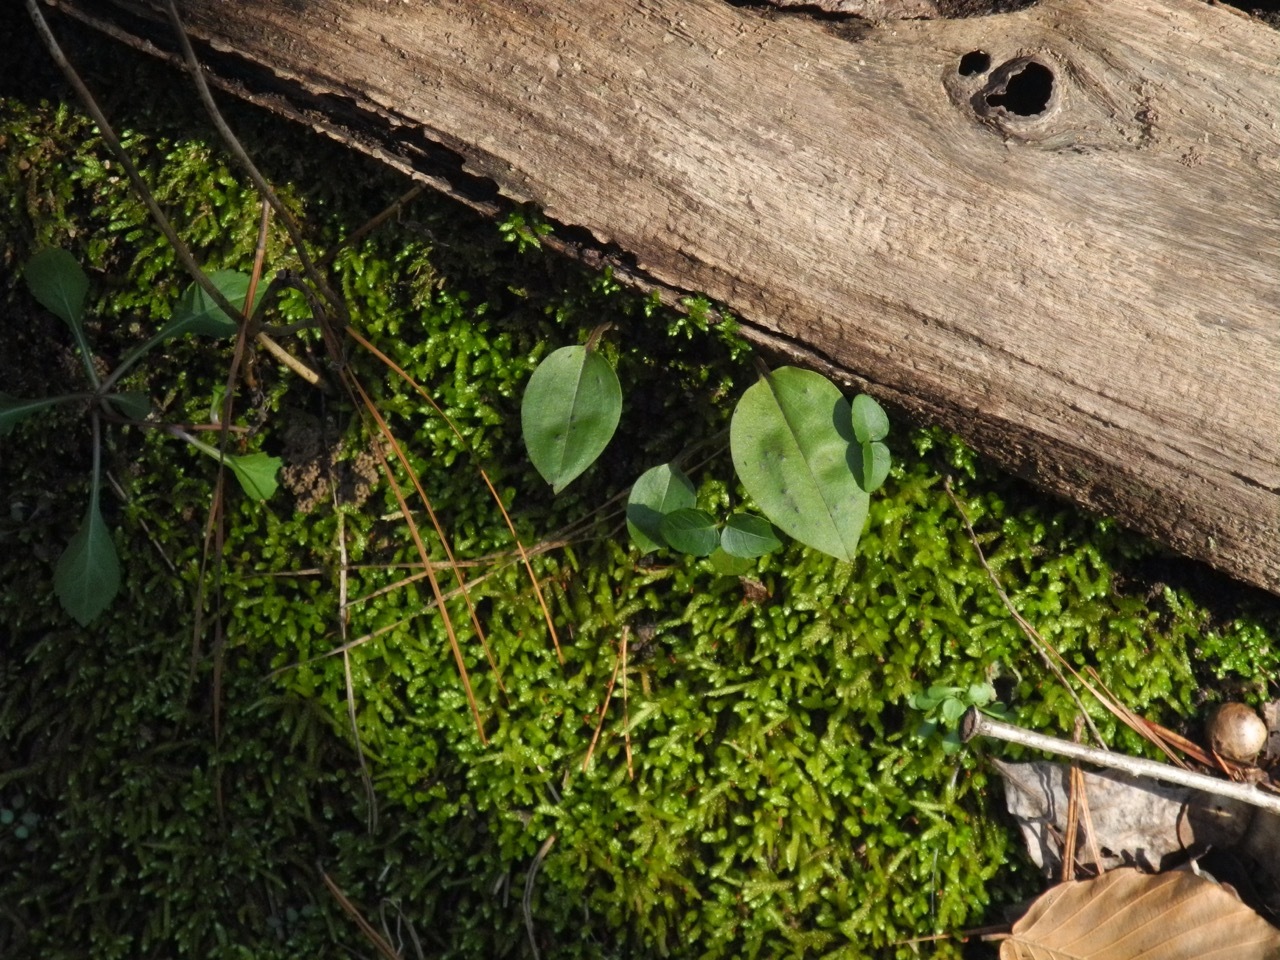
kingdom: Plantae
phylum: Tracheophyta
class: Liliopsida
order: Asparagales
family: Orchidaceae
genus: Tipularia
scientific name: Tipularia discolor
